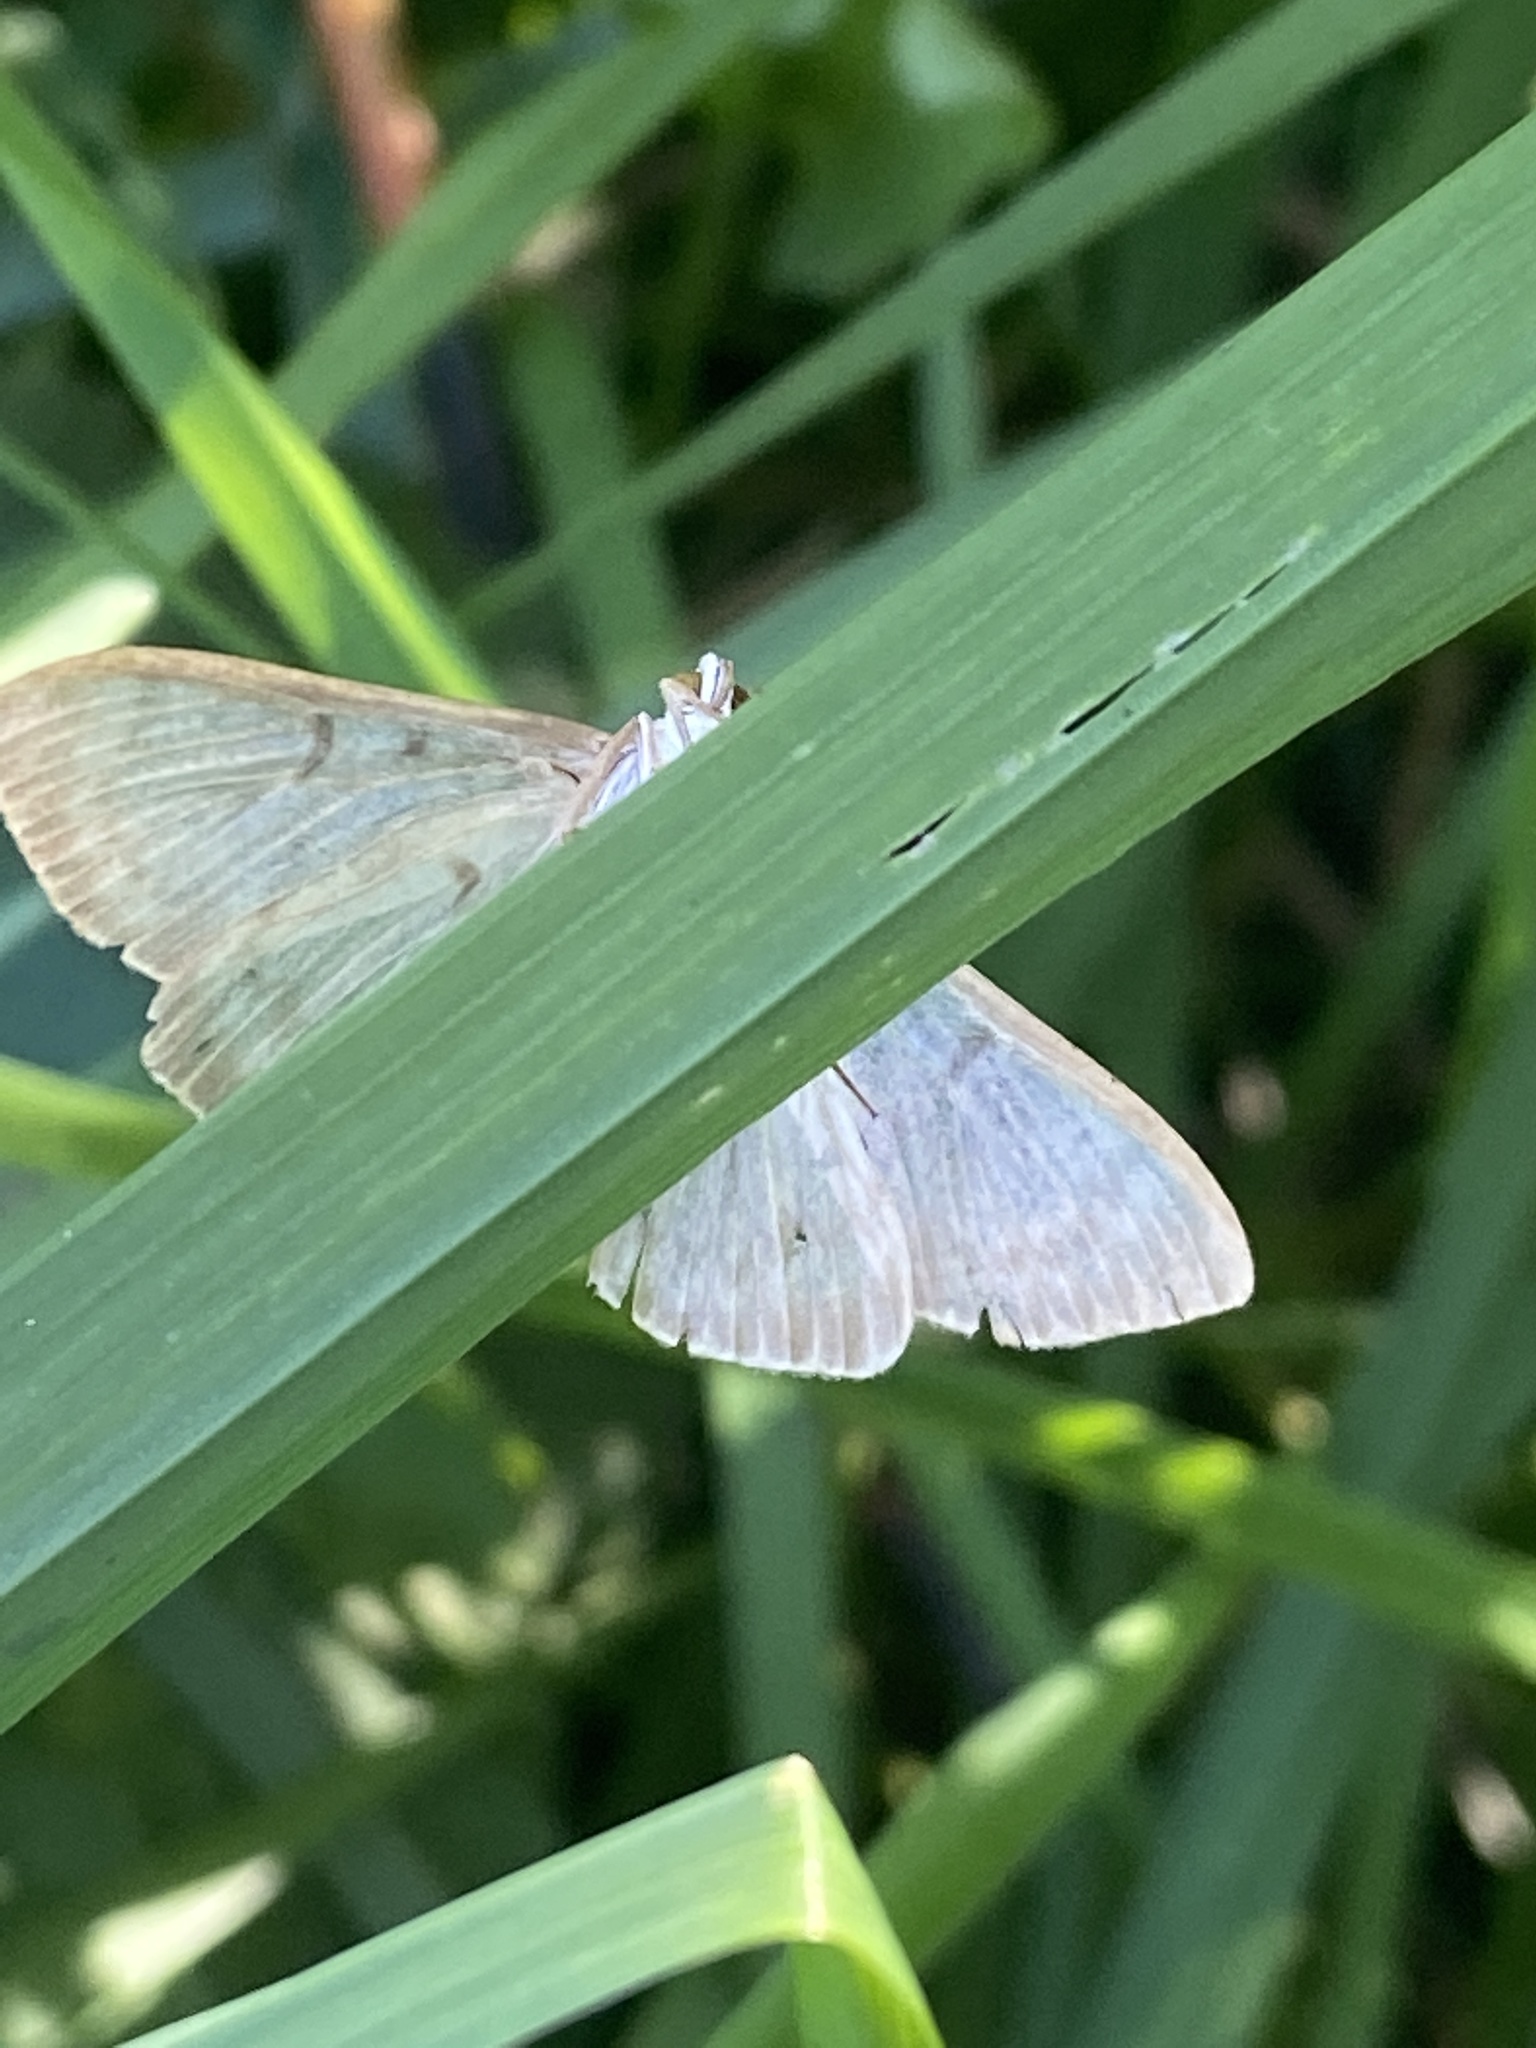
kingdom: Animalia
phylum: Arthropoda
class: Insecta
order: Lepidoptera
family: Crambidae
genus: Patania
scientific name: Patania ruralis
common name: Mother of pearl
